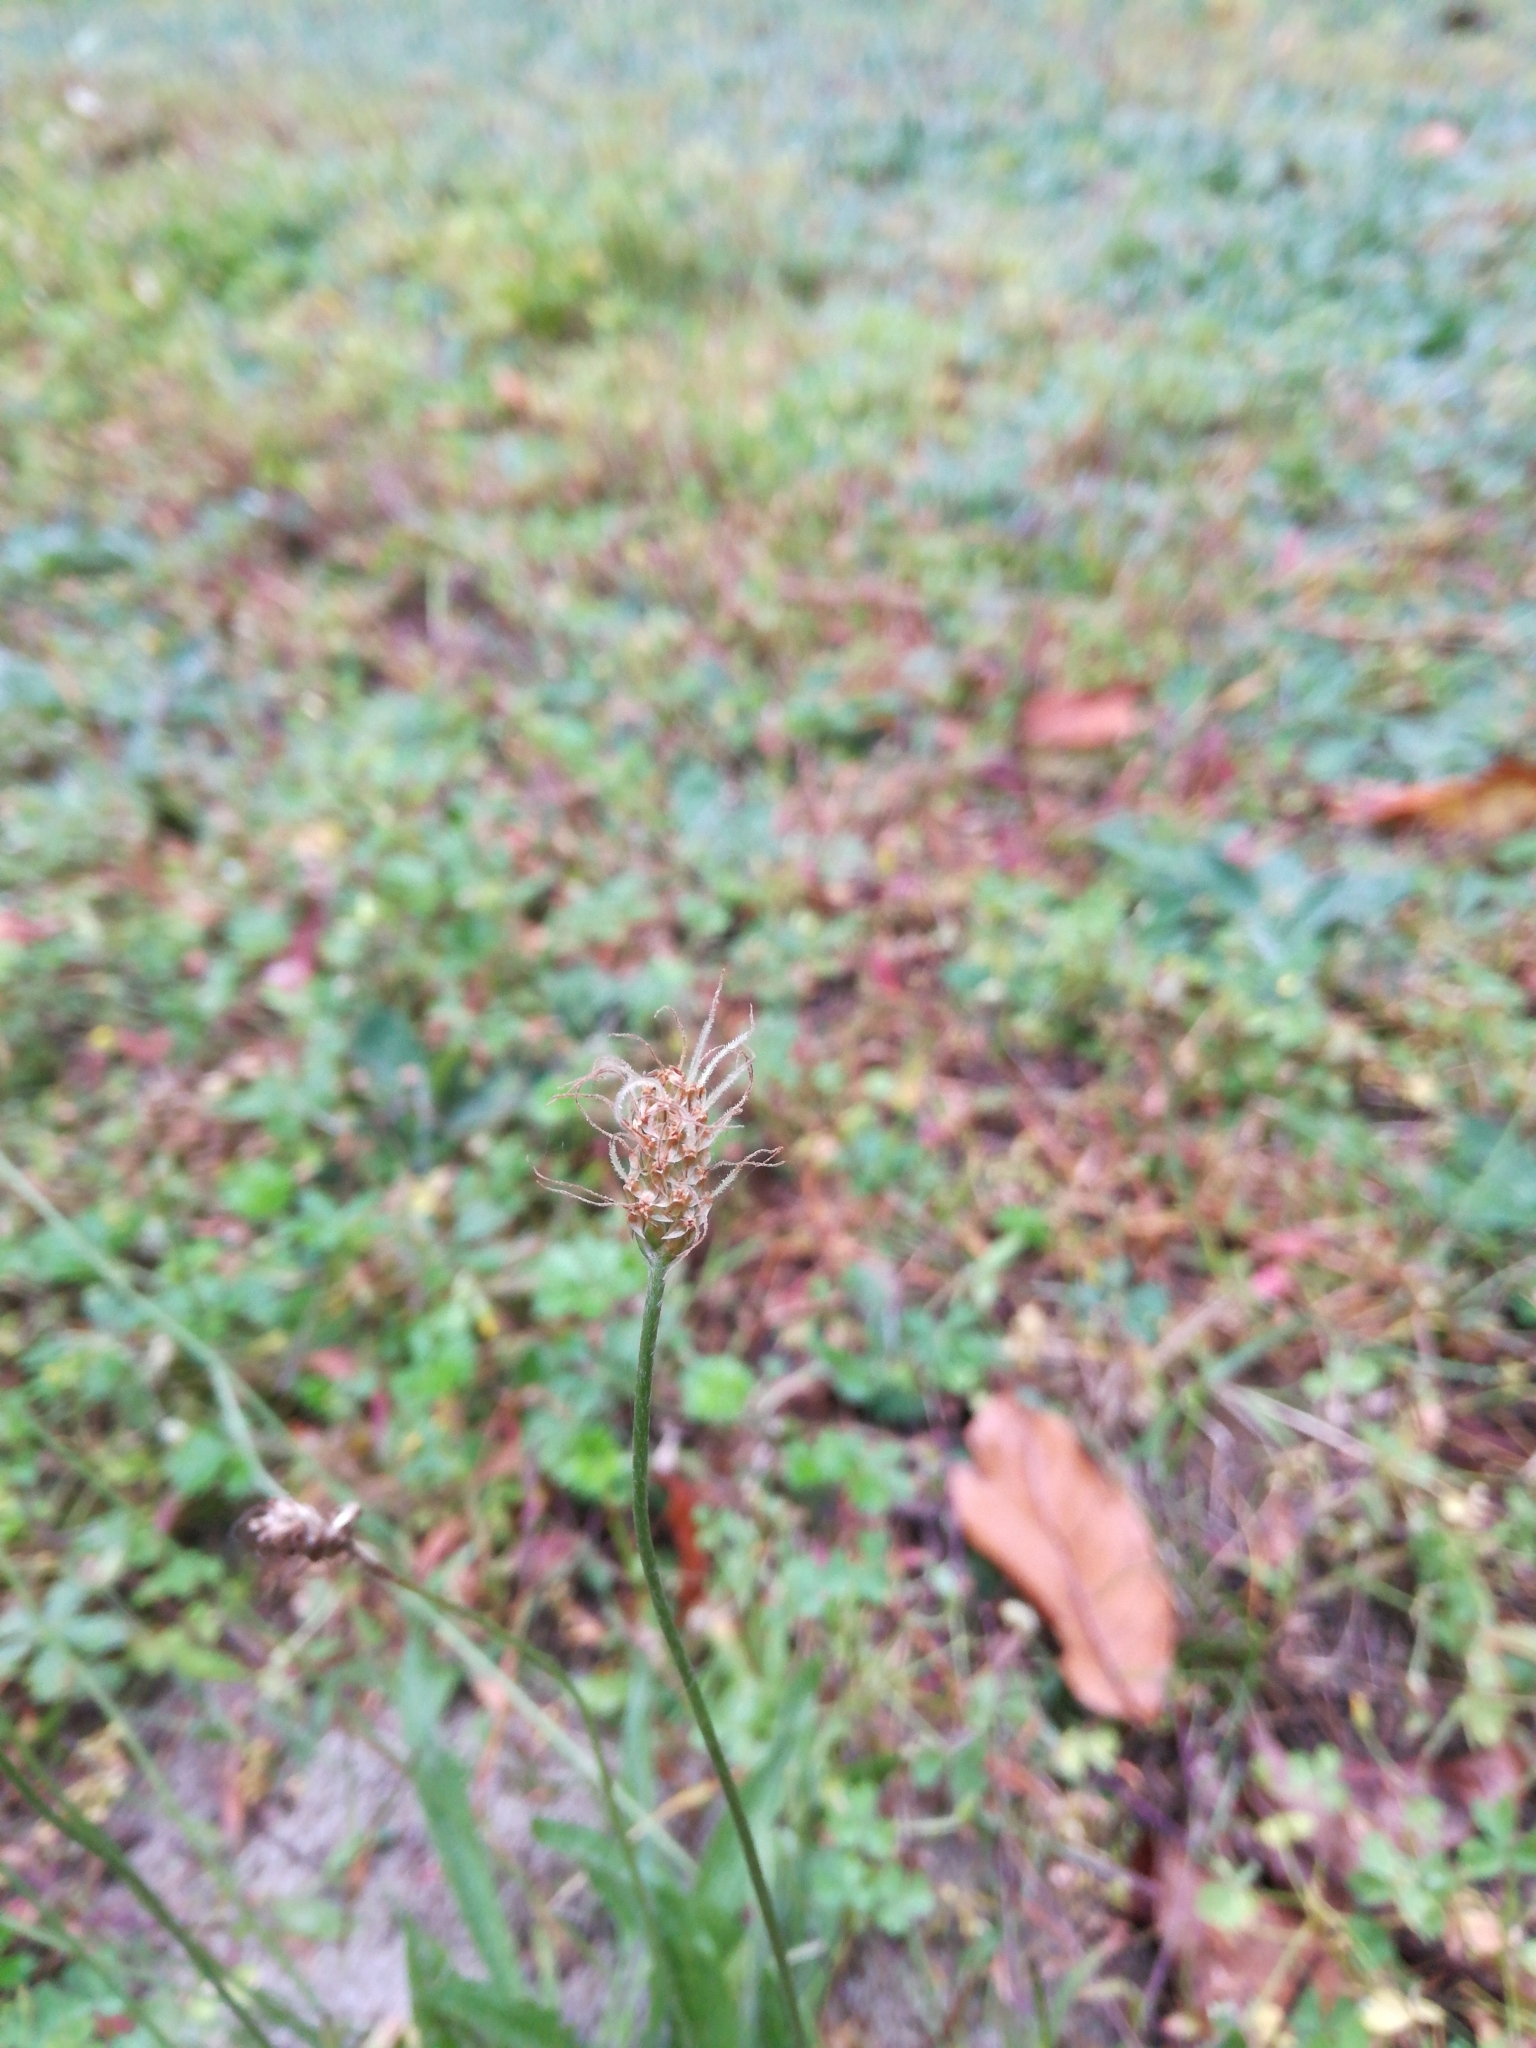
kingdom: Plantae
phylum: Tracheophyta
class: Magnoliopsida
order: Lamiales
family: Plantaginaceae
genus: Plantago
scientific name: Plantago lanceolata
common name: Ribwort plantain
